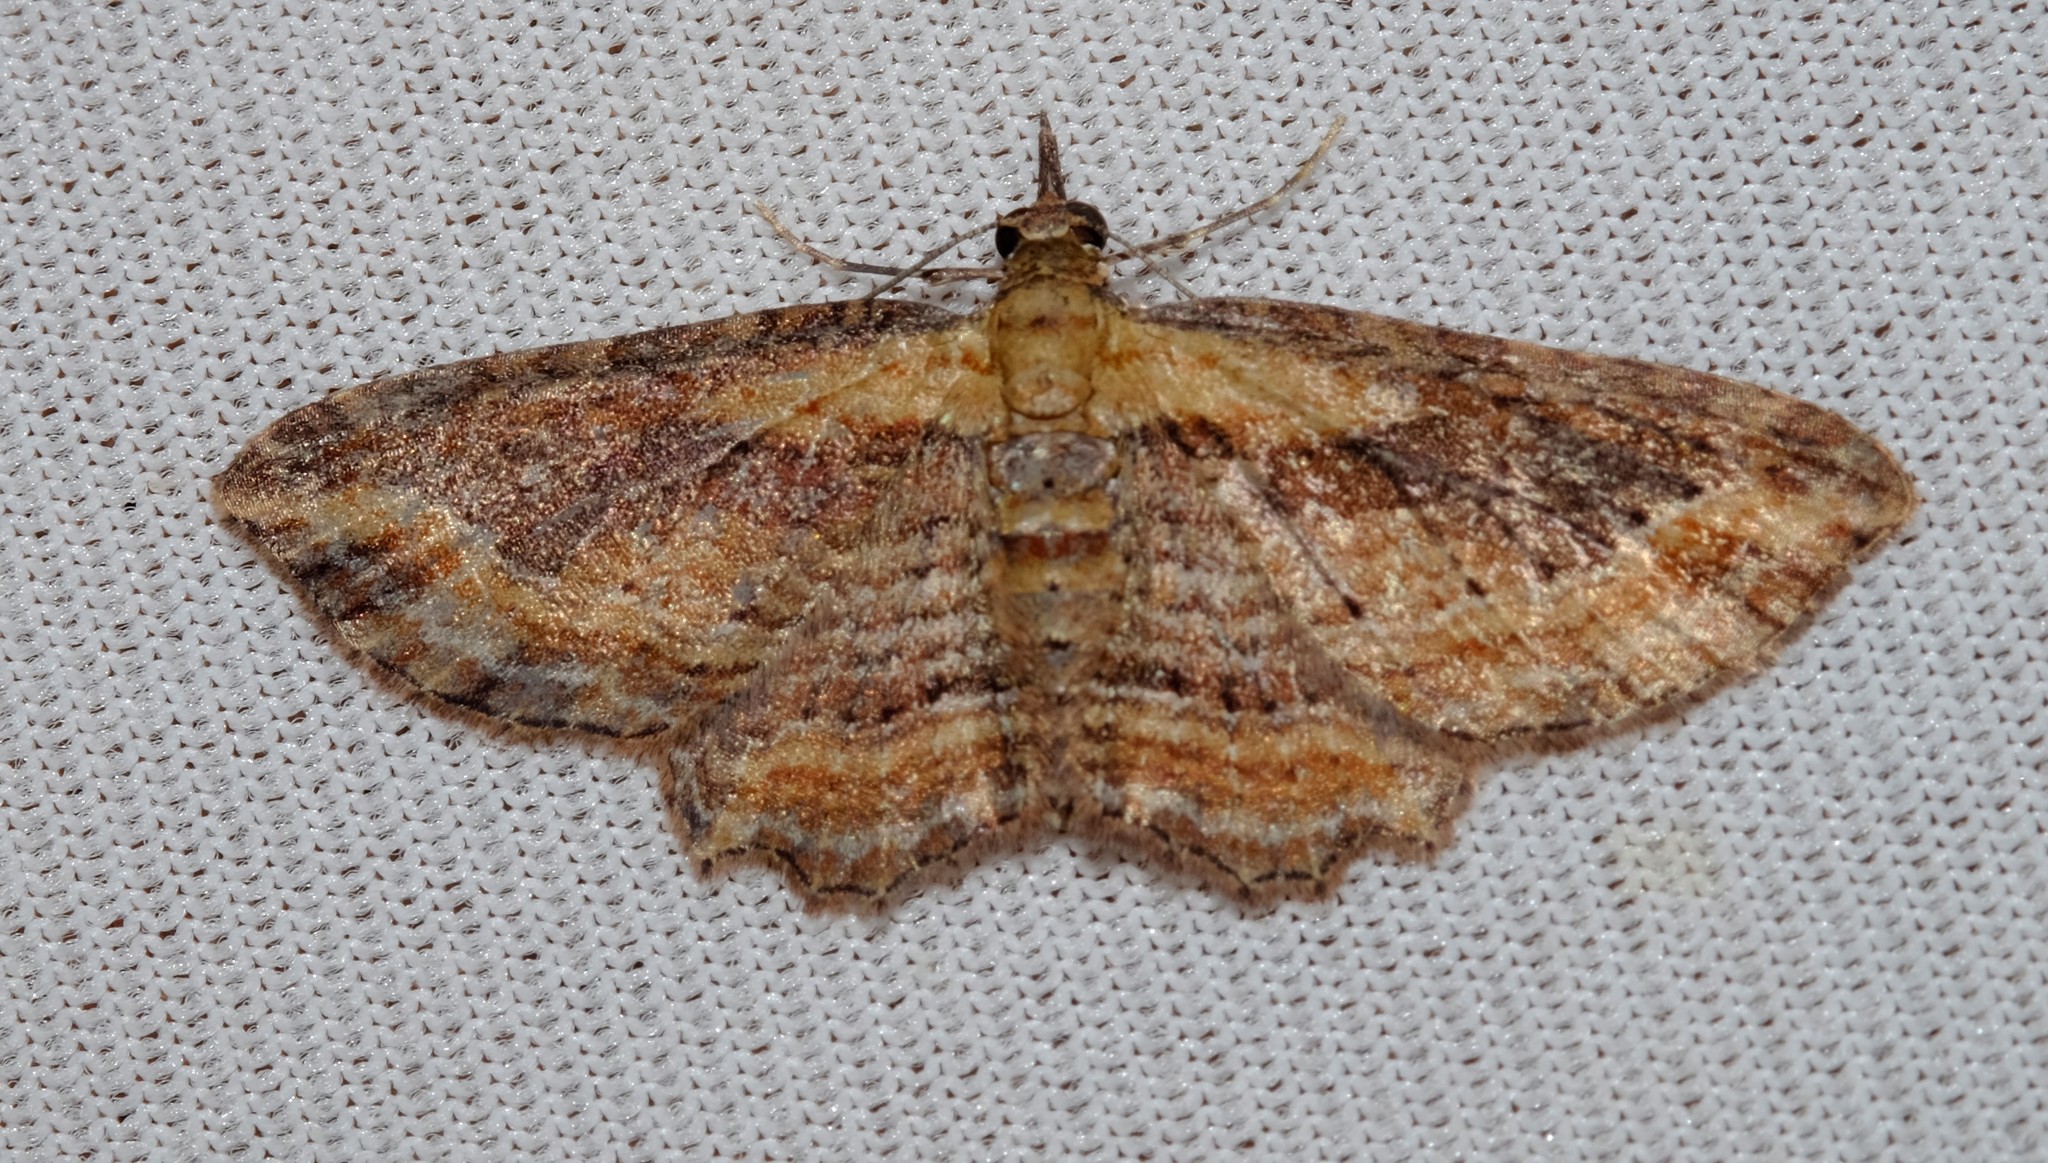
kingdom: Animalia
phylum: Arthropoda
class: Insecta
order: Lepidoptera
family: Geometridae
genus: Chloroclystis
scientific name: Chloroclystis filata
